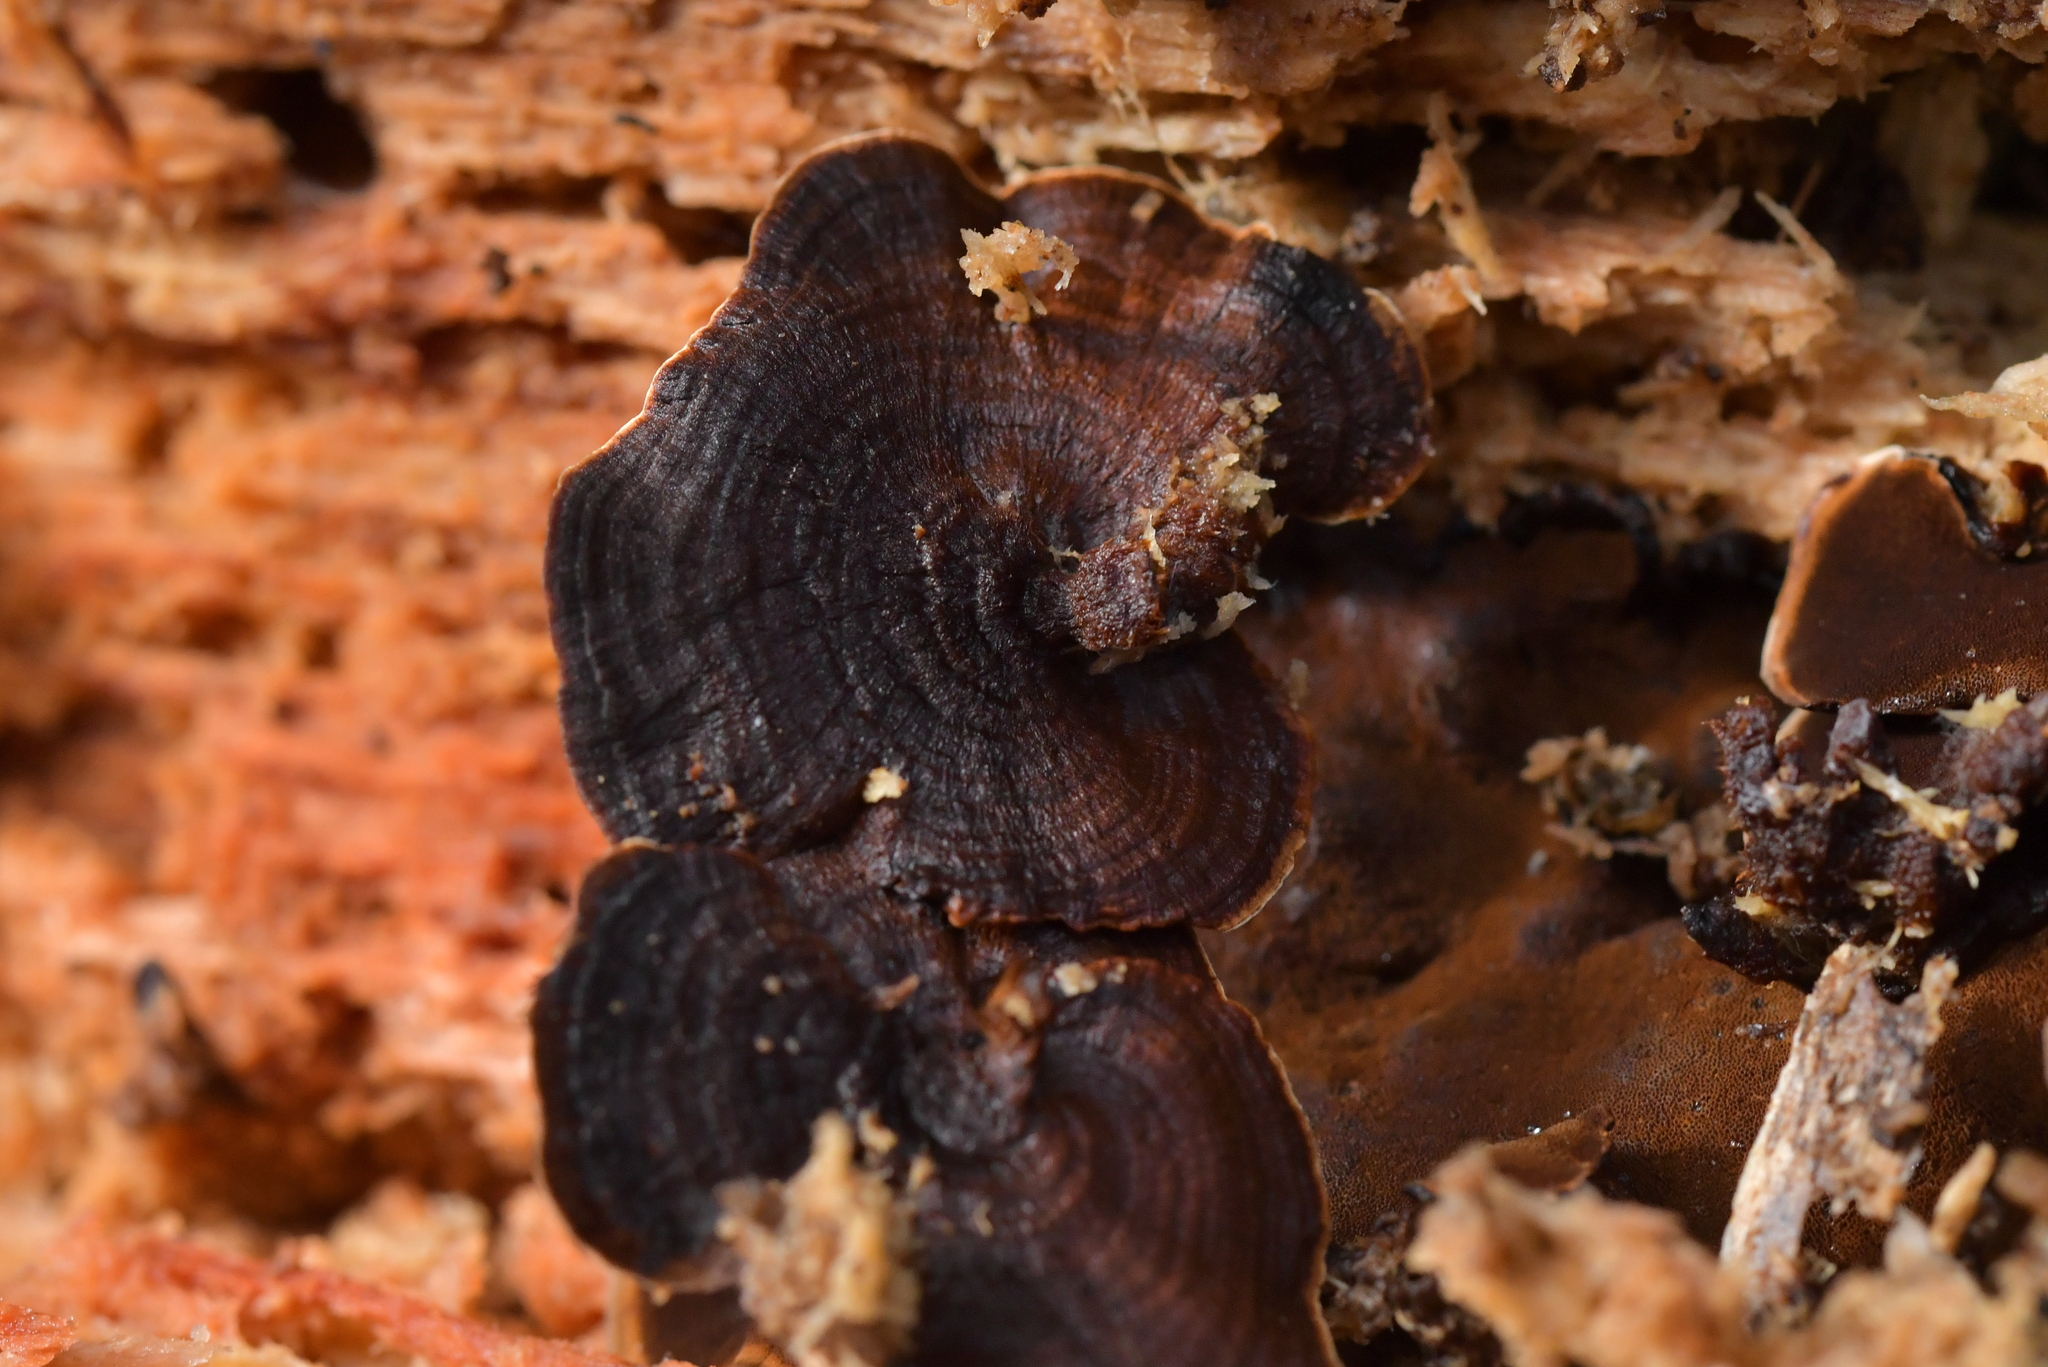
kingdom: Fungi
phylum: Basidiomycota
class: Agaricomycetes
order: Hymenochaetales
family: Hymenochaetaceae
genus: Hymenochaete
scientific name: Hymenochaete microcycla
